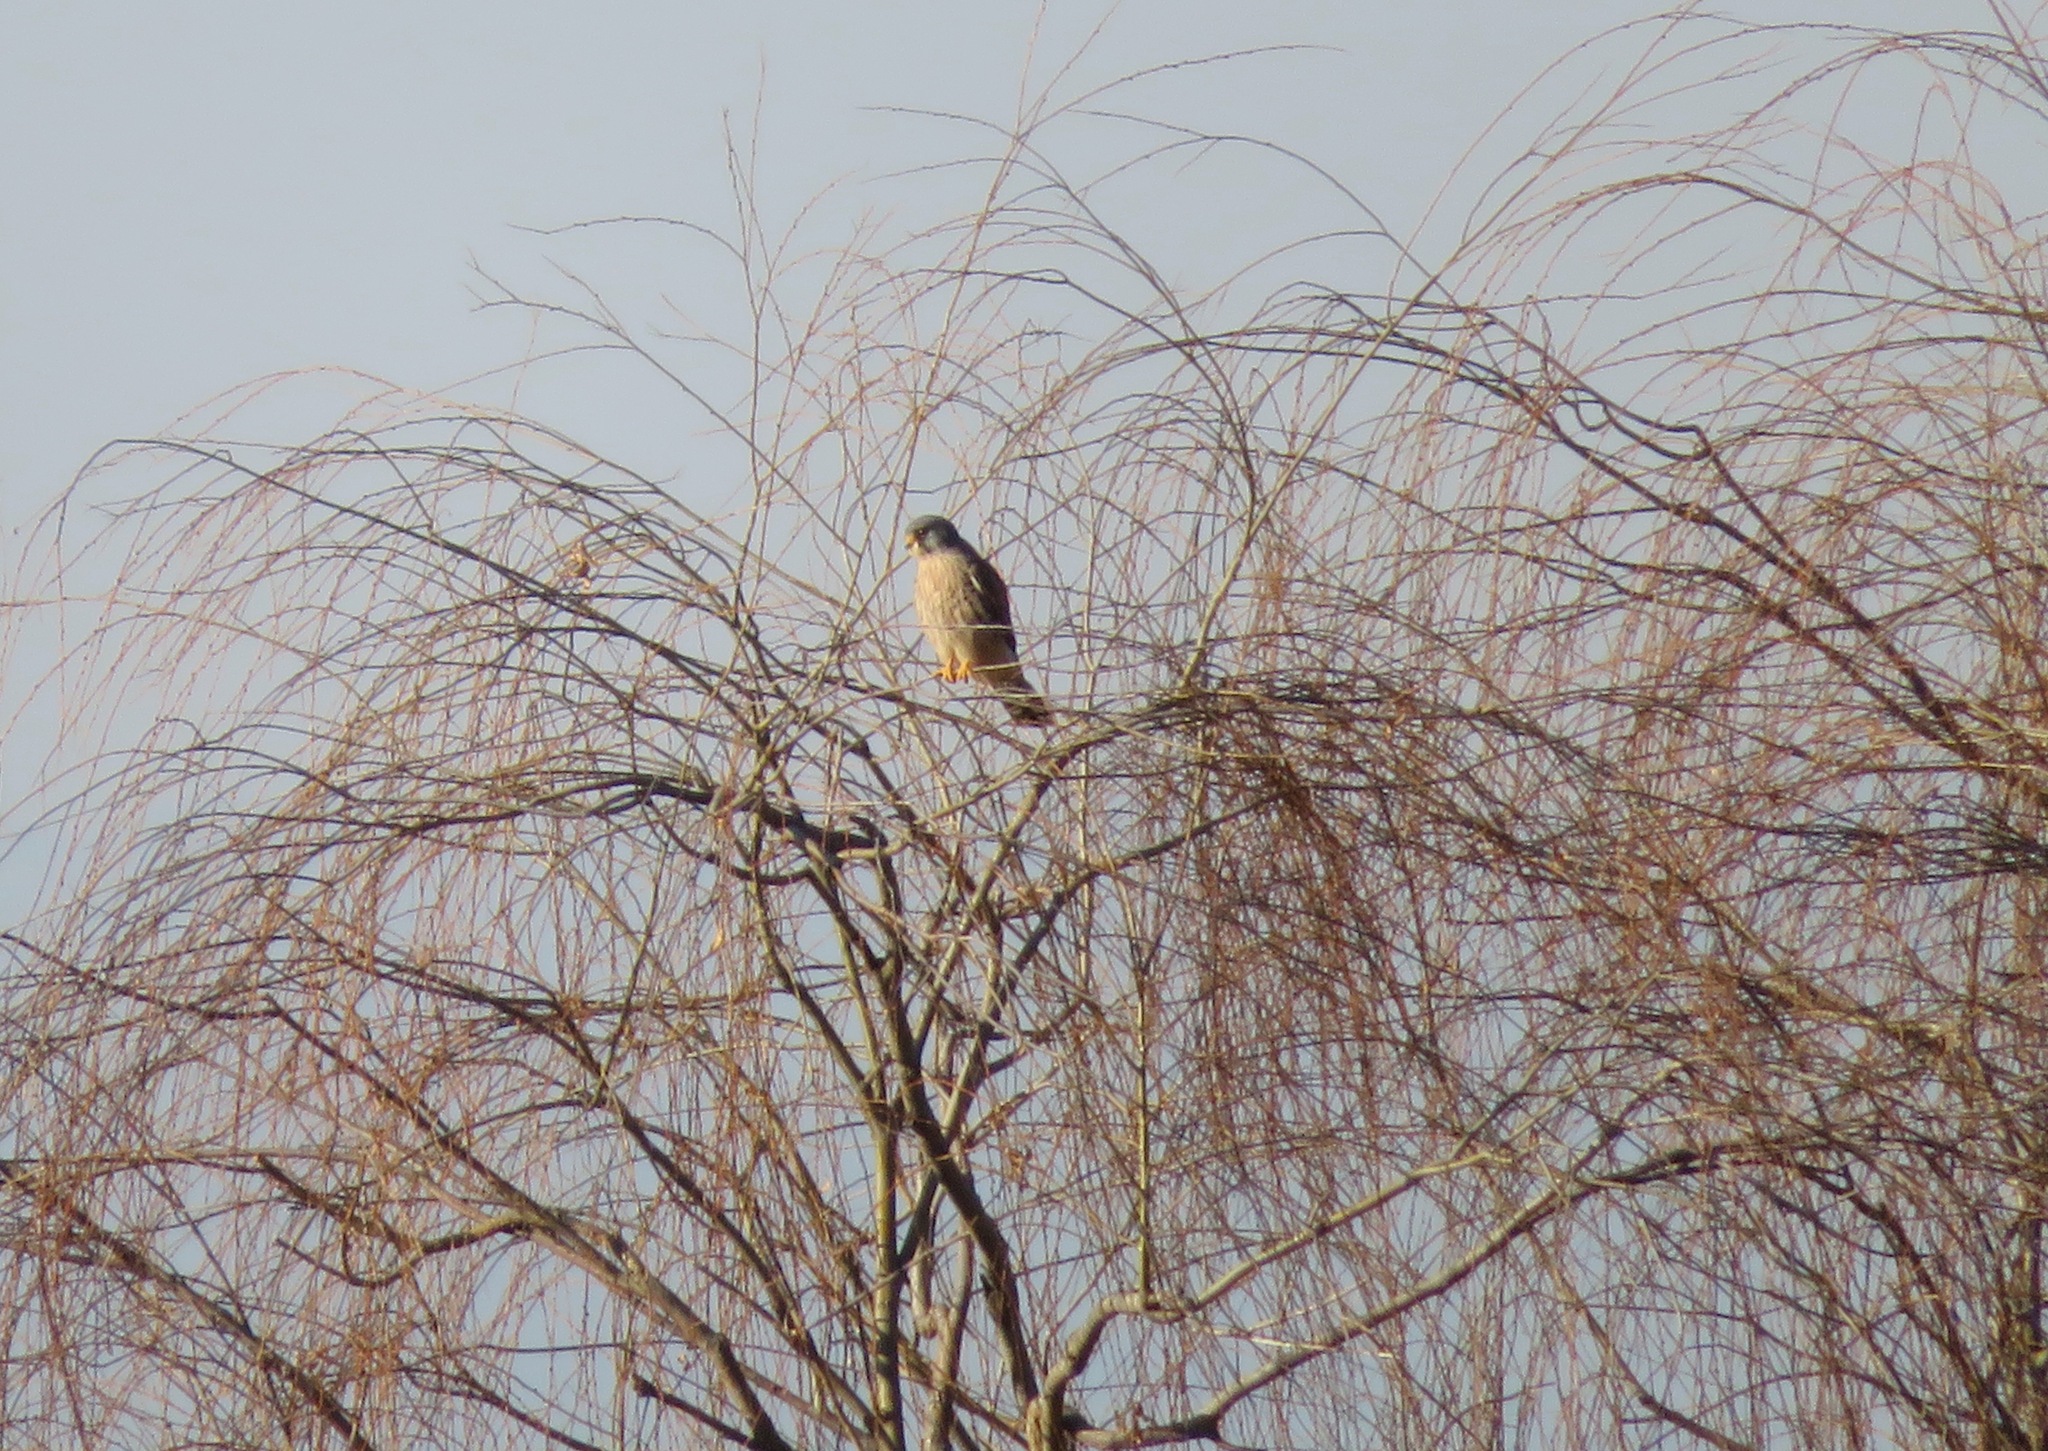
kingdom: Animalia
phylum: Chordata
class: Aves
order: Falconiformes
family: Falconidae
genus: Falco
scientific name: Falco tinnunculus
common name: Common kestrel
